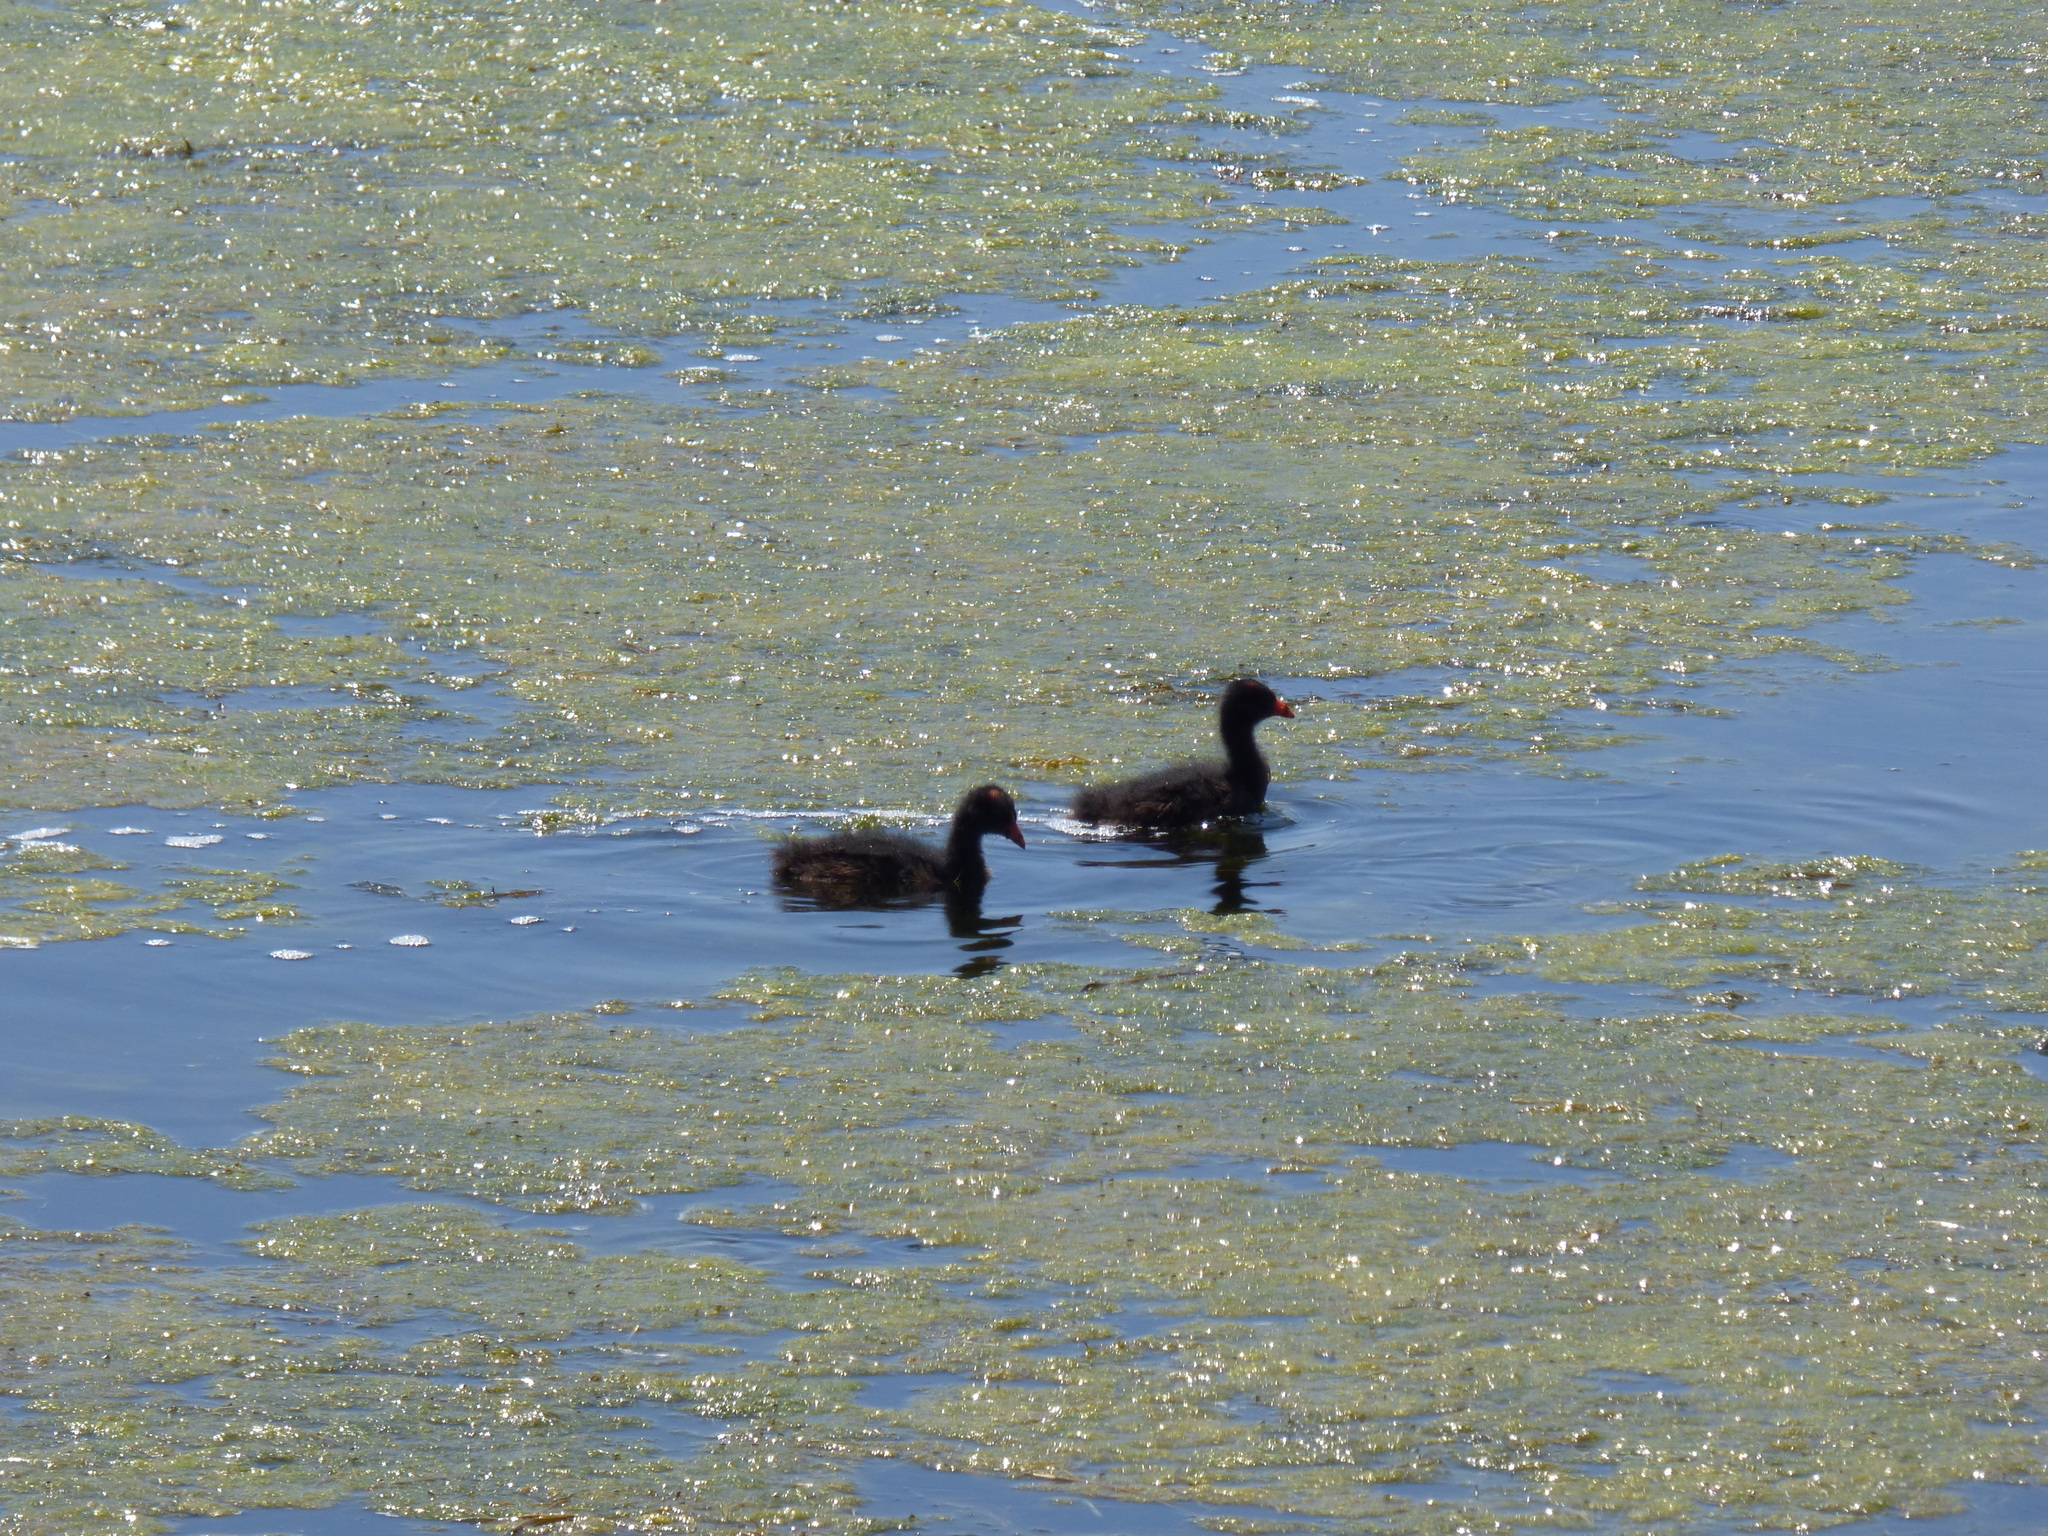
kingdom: Animalia
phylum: Chordata
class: Aves
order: Gruiformes
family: Rallidae
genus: Gallinula
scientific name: Gallinula chloropus
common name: Common moorhen
